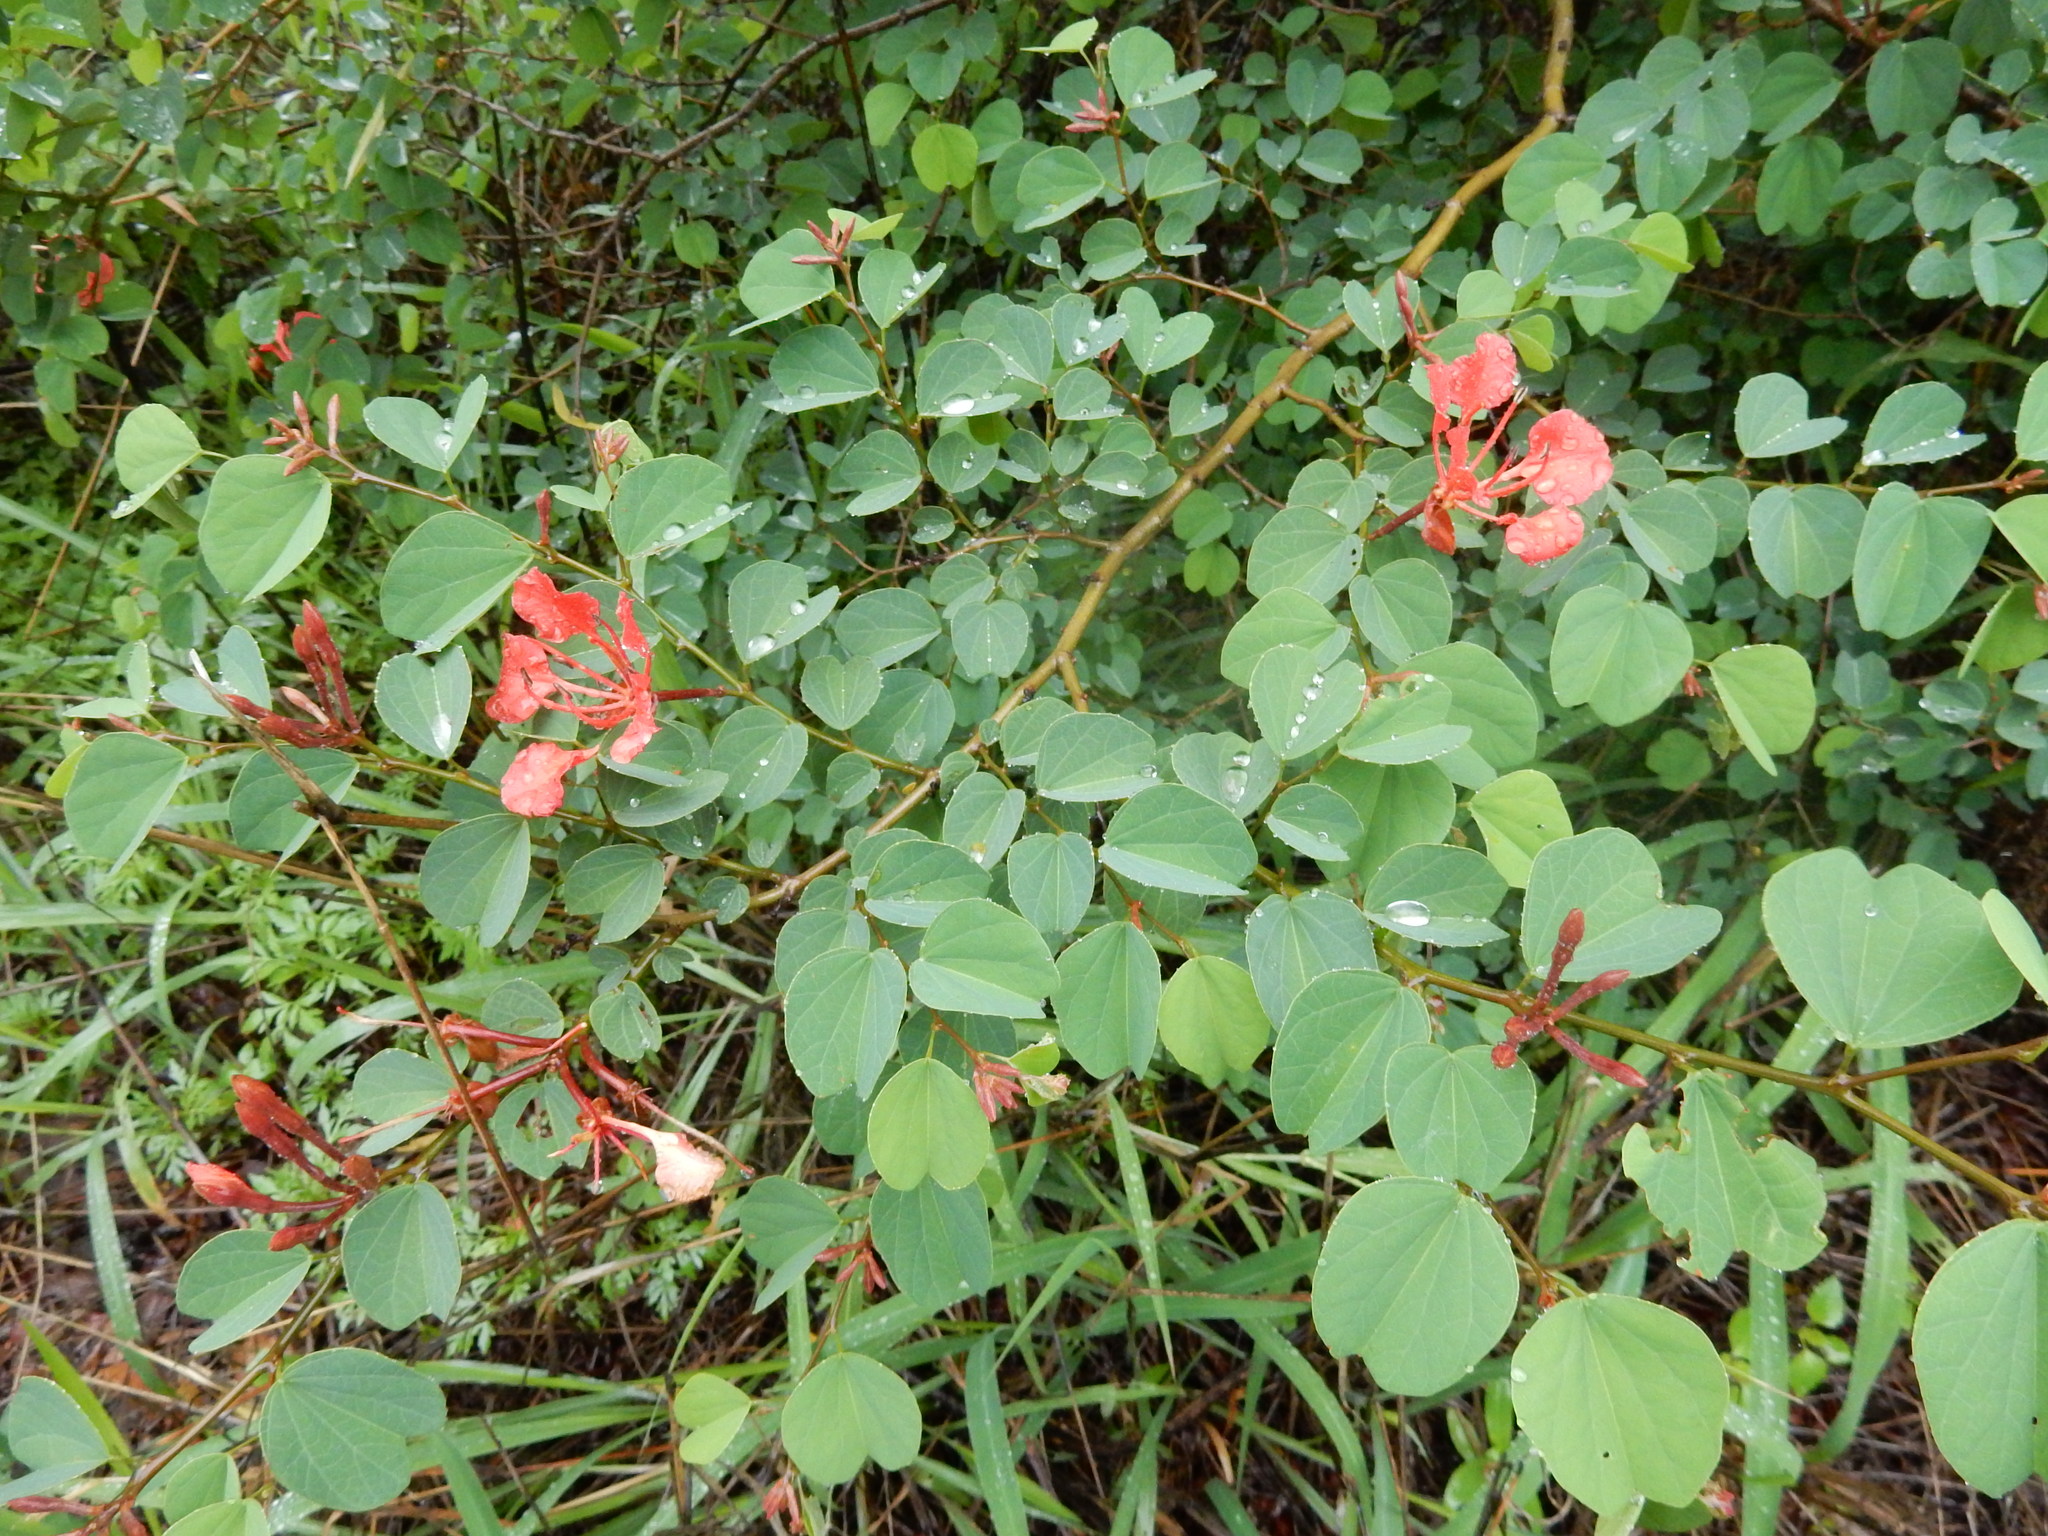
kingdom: Plantae
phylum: Tracheophyta
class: Magnoliopsida
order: Fabales
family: Fabaceae
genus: Bauhinia
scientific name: Bauhinia galpinii
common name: African plume
